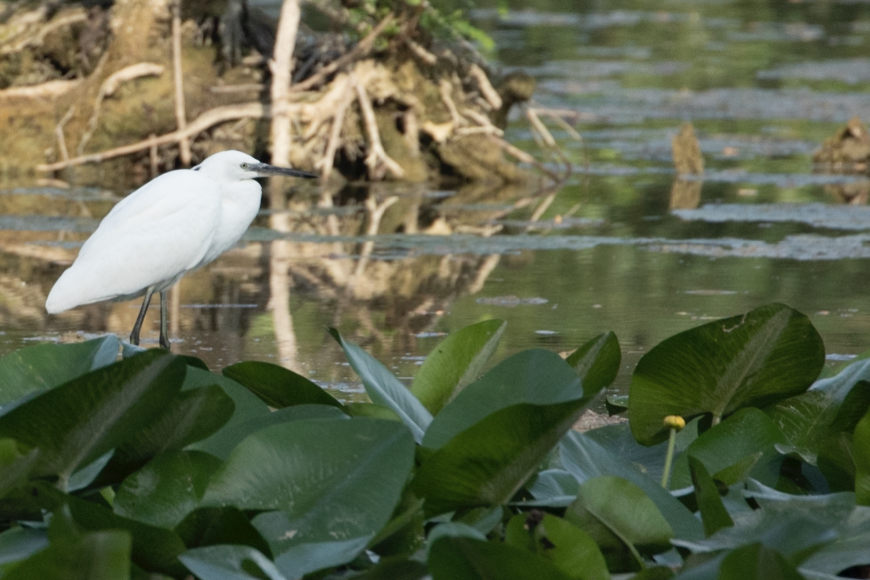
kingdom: Animalia
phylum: Chordata
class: Aves
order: Pelecaniformes
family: Ardeidae
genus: Egretta
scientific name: Egretta garzetta
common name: Little egret
